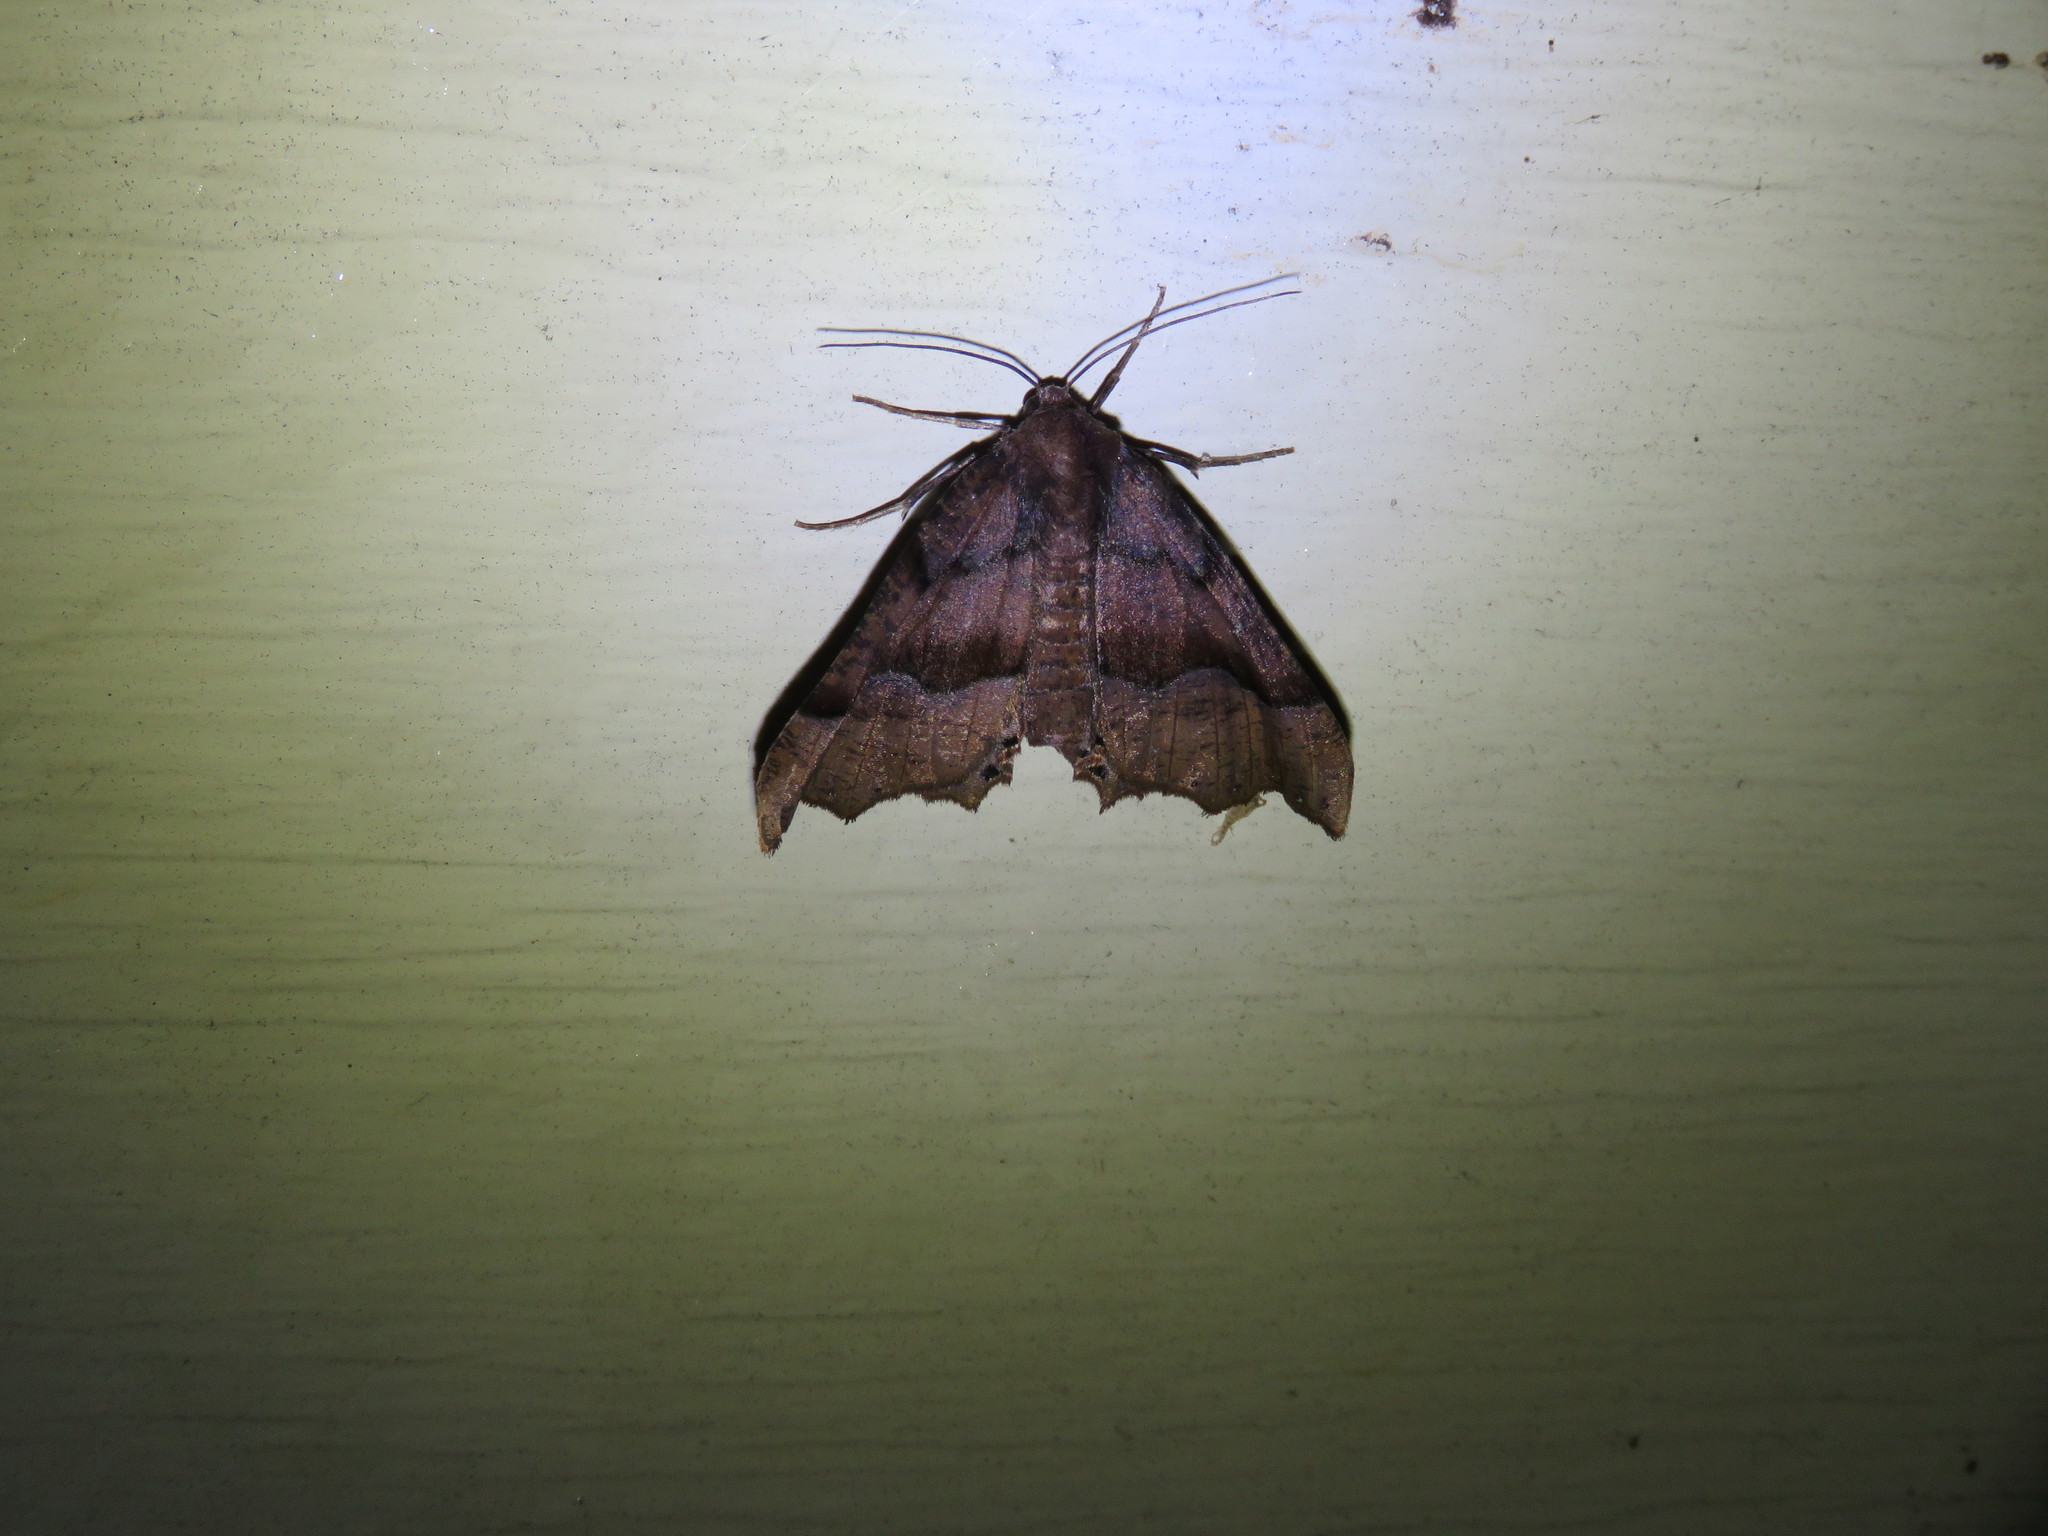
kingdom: Animalia
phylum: Arthropoda
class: Insecta
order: Lepidoptera
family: Geometridae
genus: Pero
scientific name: Pero honestaria
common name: Honest pero
